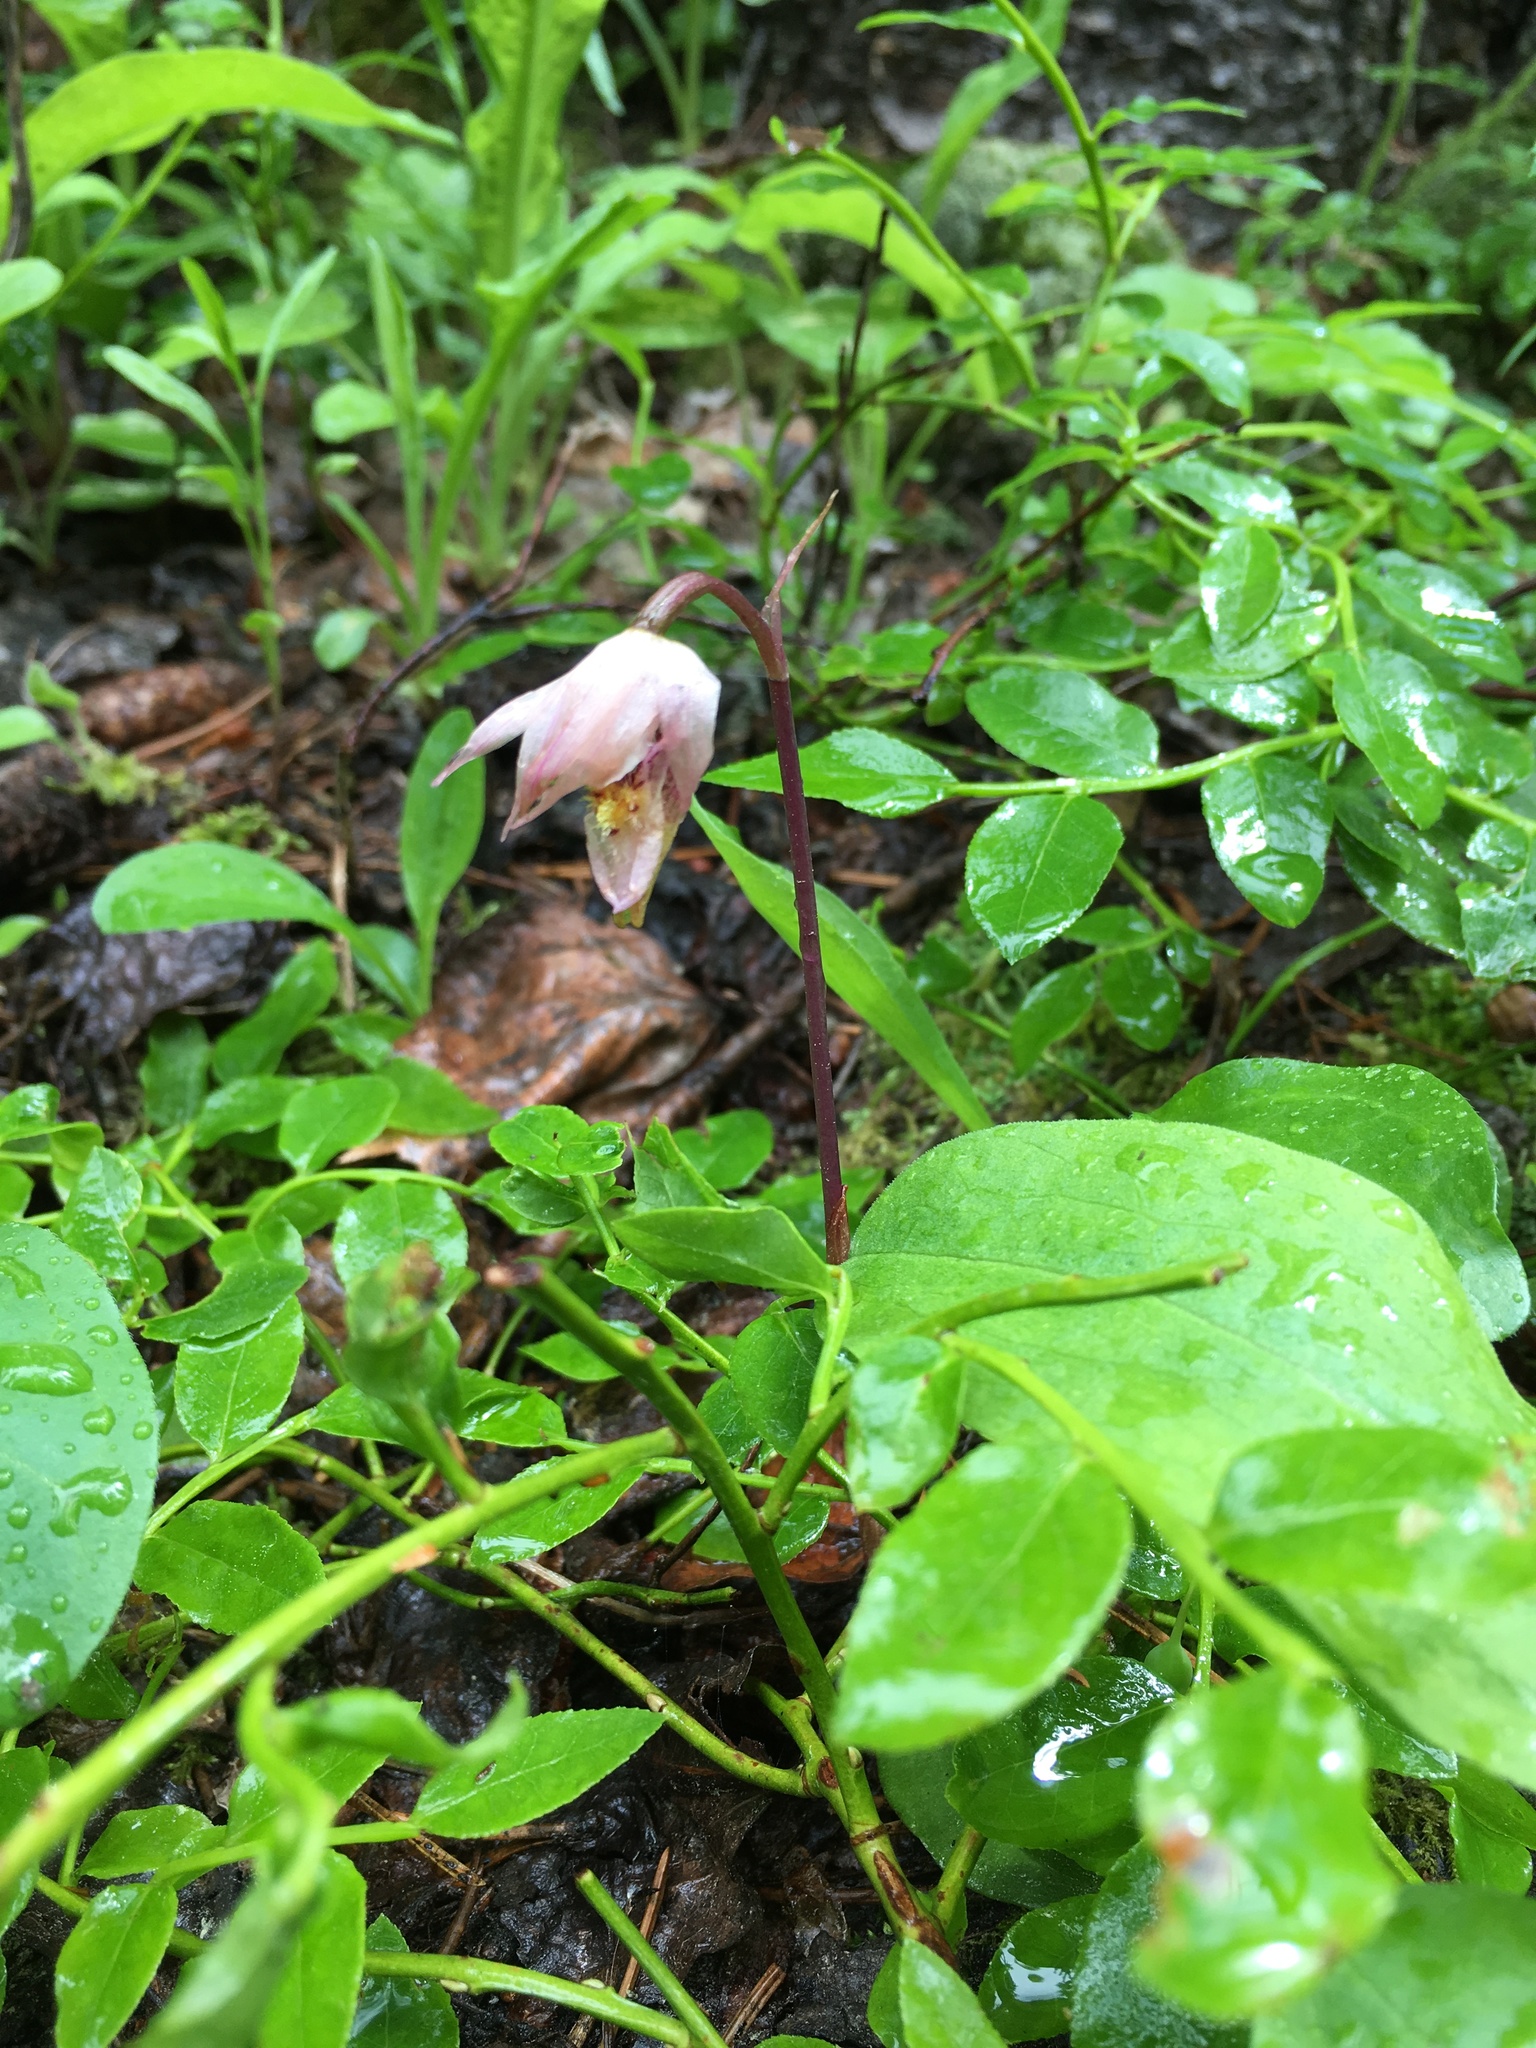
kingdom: Plantae
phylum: Tracheophyta
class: Liliopsida
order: Asparagales
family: Orchidaceae
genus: Calypso
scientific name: Calypso bulbosa
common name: Calypso
